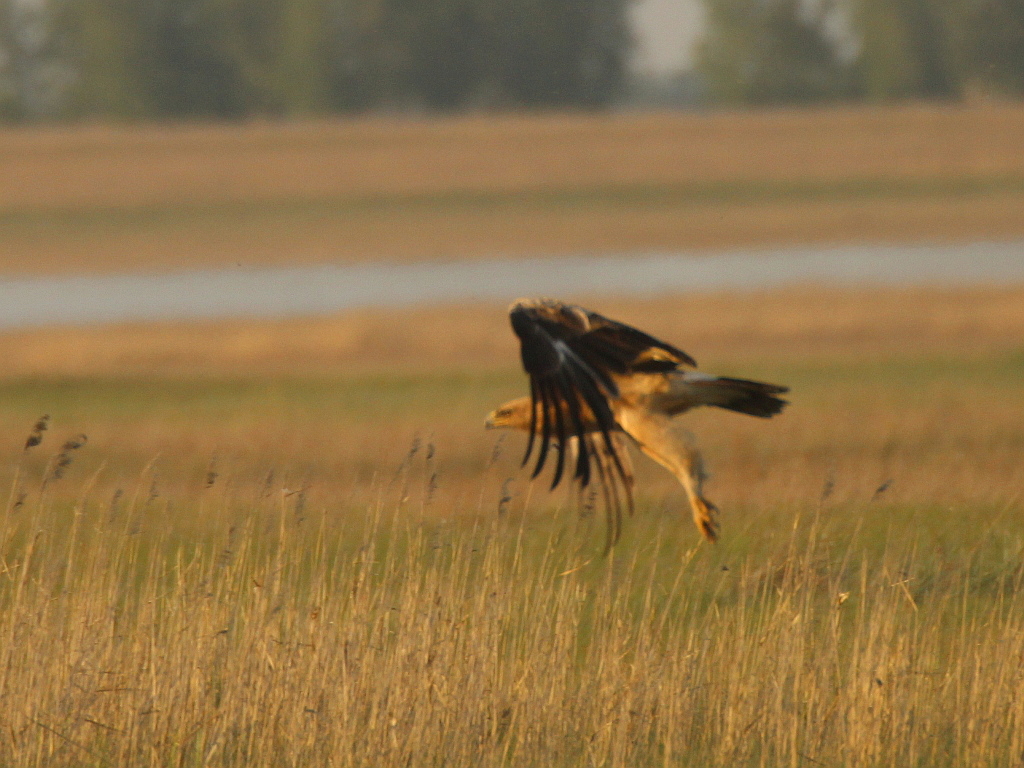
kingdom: Animalia
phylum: Chordata
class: Aves
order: Accipitriformes
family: Accipitridae
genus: Aquila
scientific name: Aquila clanga
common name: Greater spotted eagle
